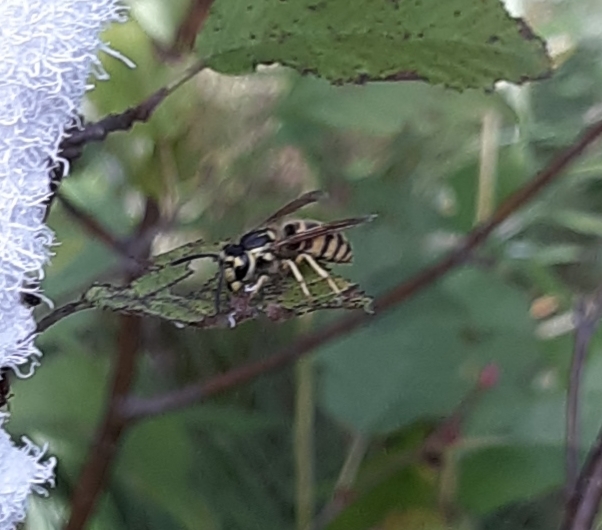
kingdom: Animalia
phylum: Arthropoda
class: Insecta
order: Hymenoptera
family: Vespidae
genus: Vespula
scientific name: Vespula flavopilosa
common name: Downy yellowjacket
